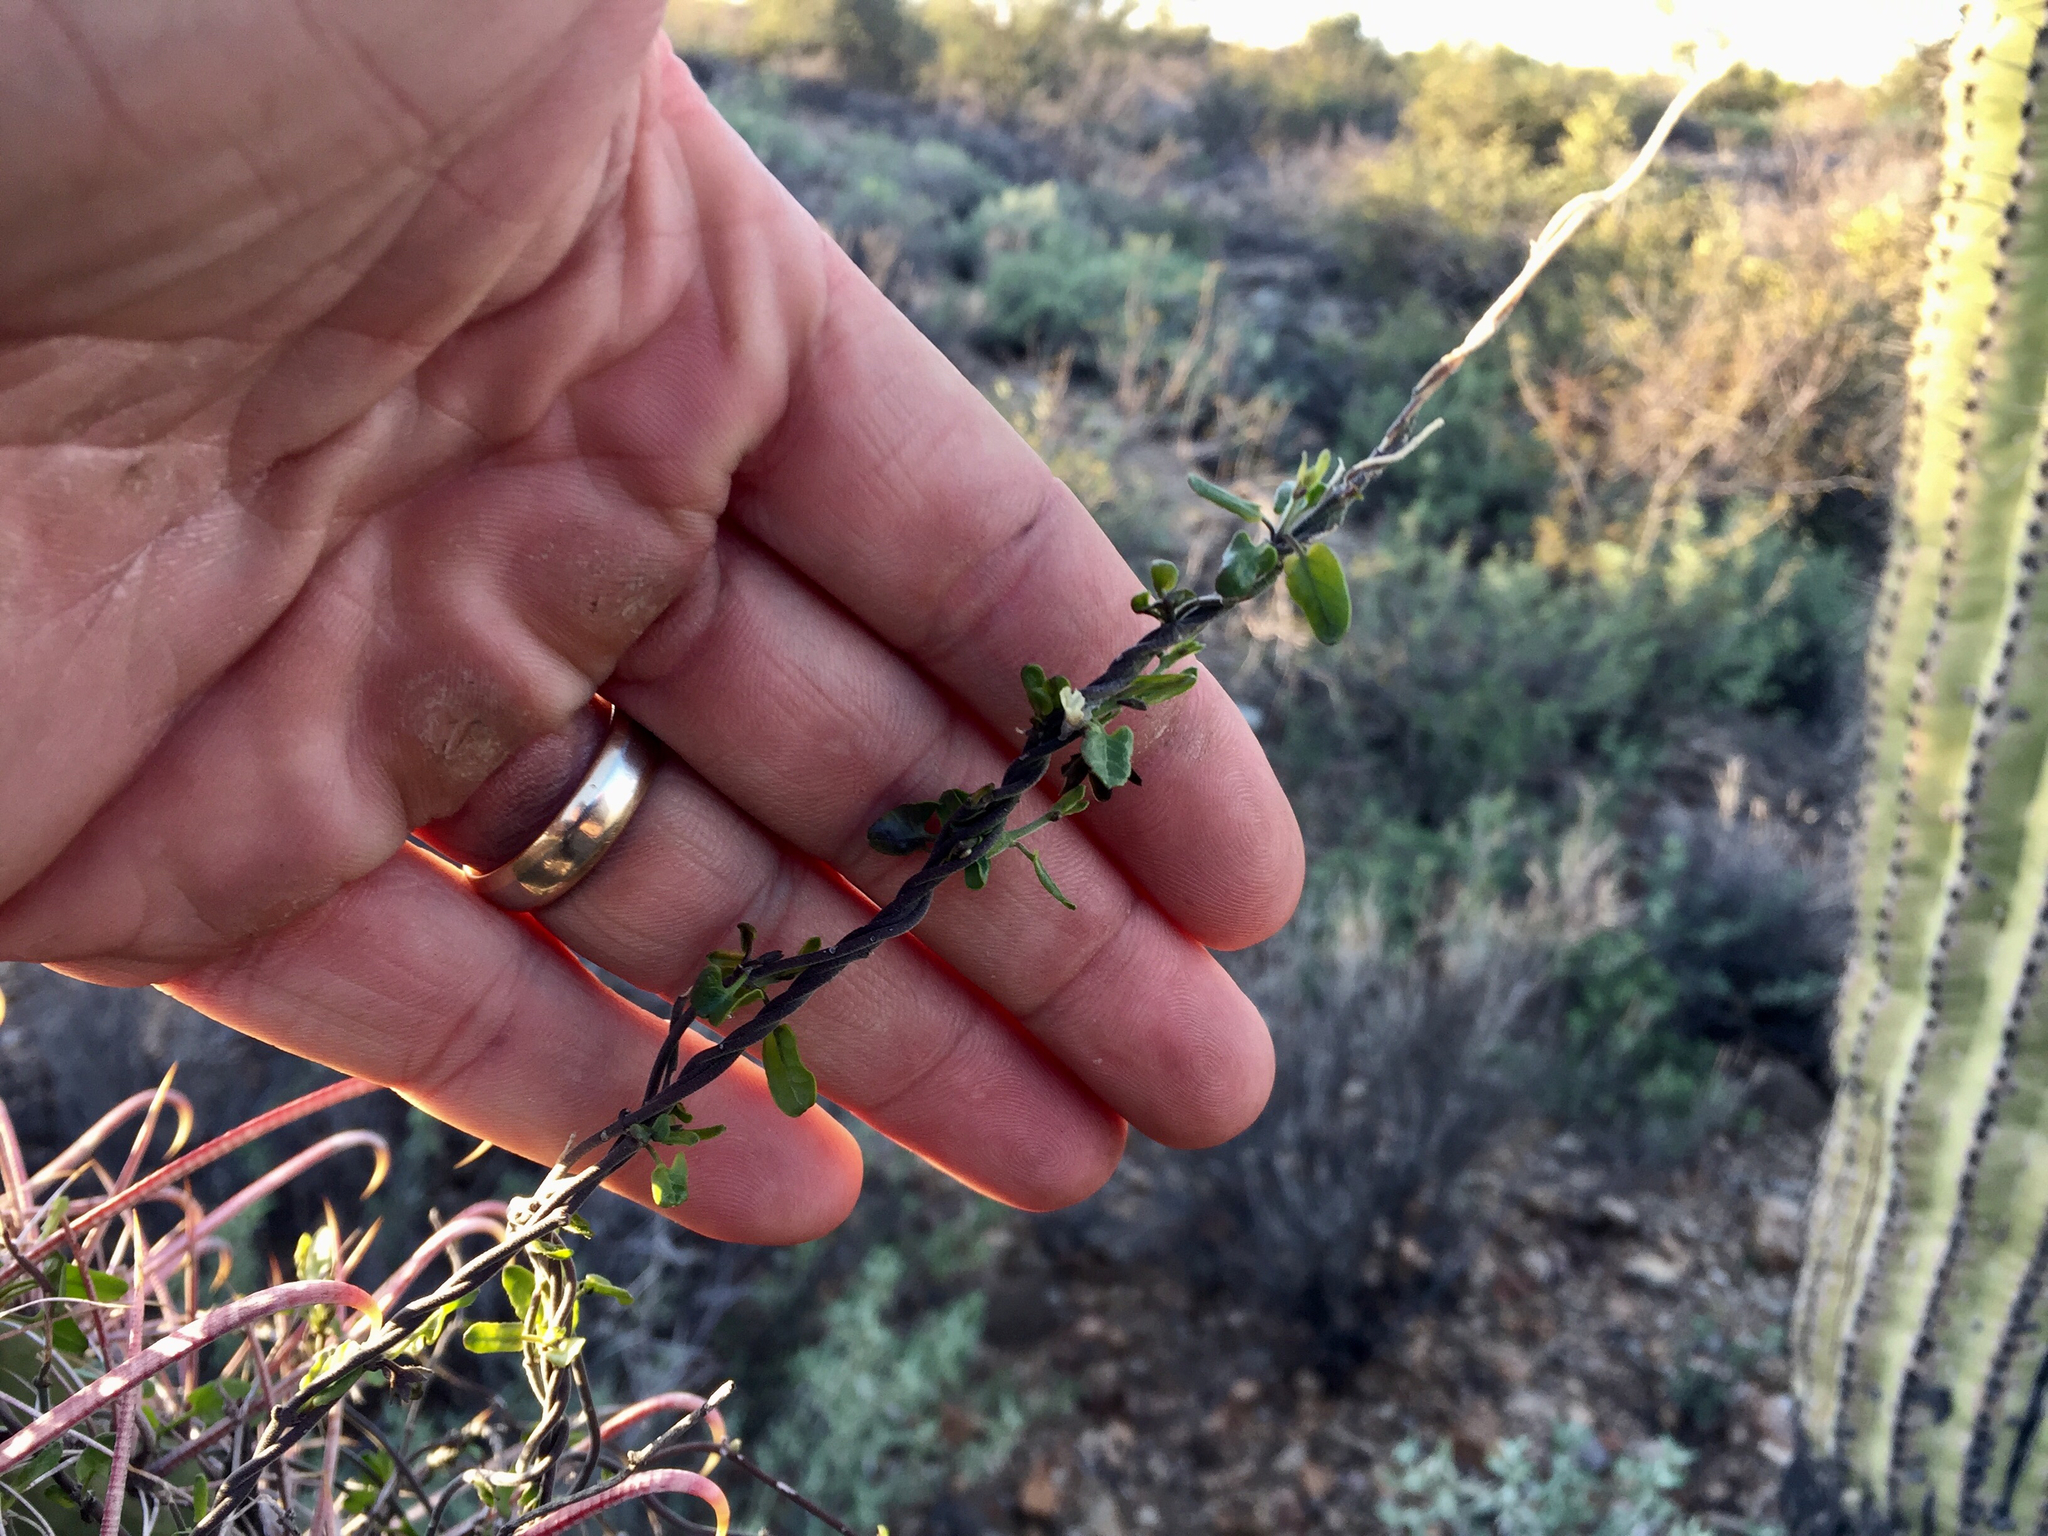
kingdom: Plantae
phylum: Tracheophyta
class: Magnoliopsida
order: Gentianales
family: Apocynaceae
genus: Matelea
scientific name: Matelea parvifolia
